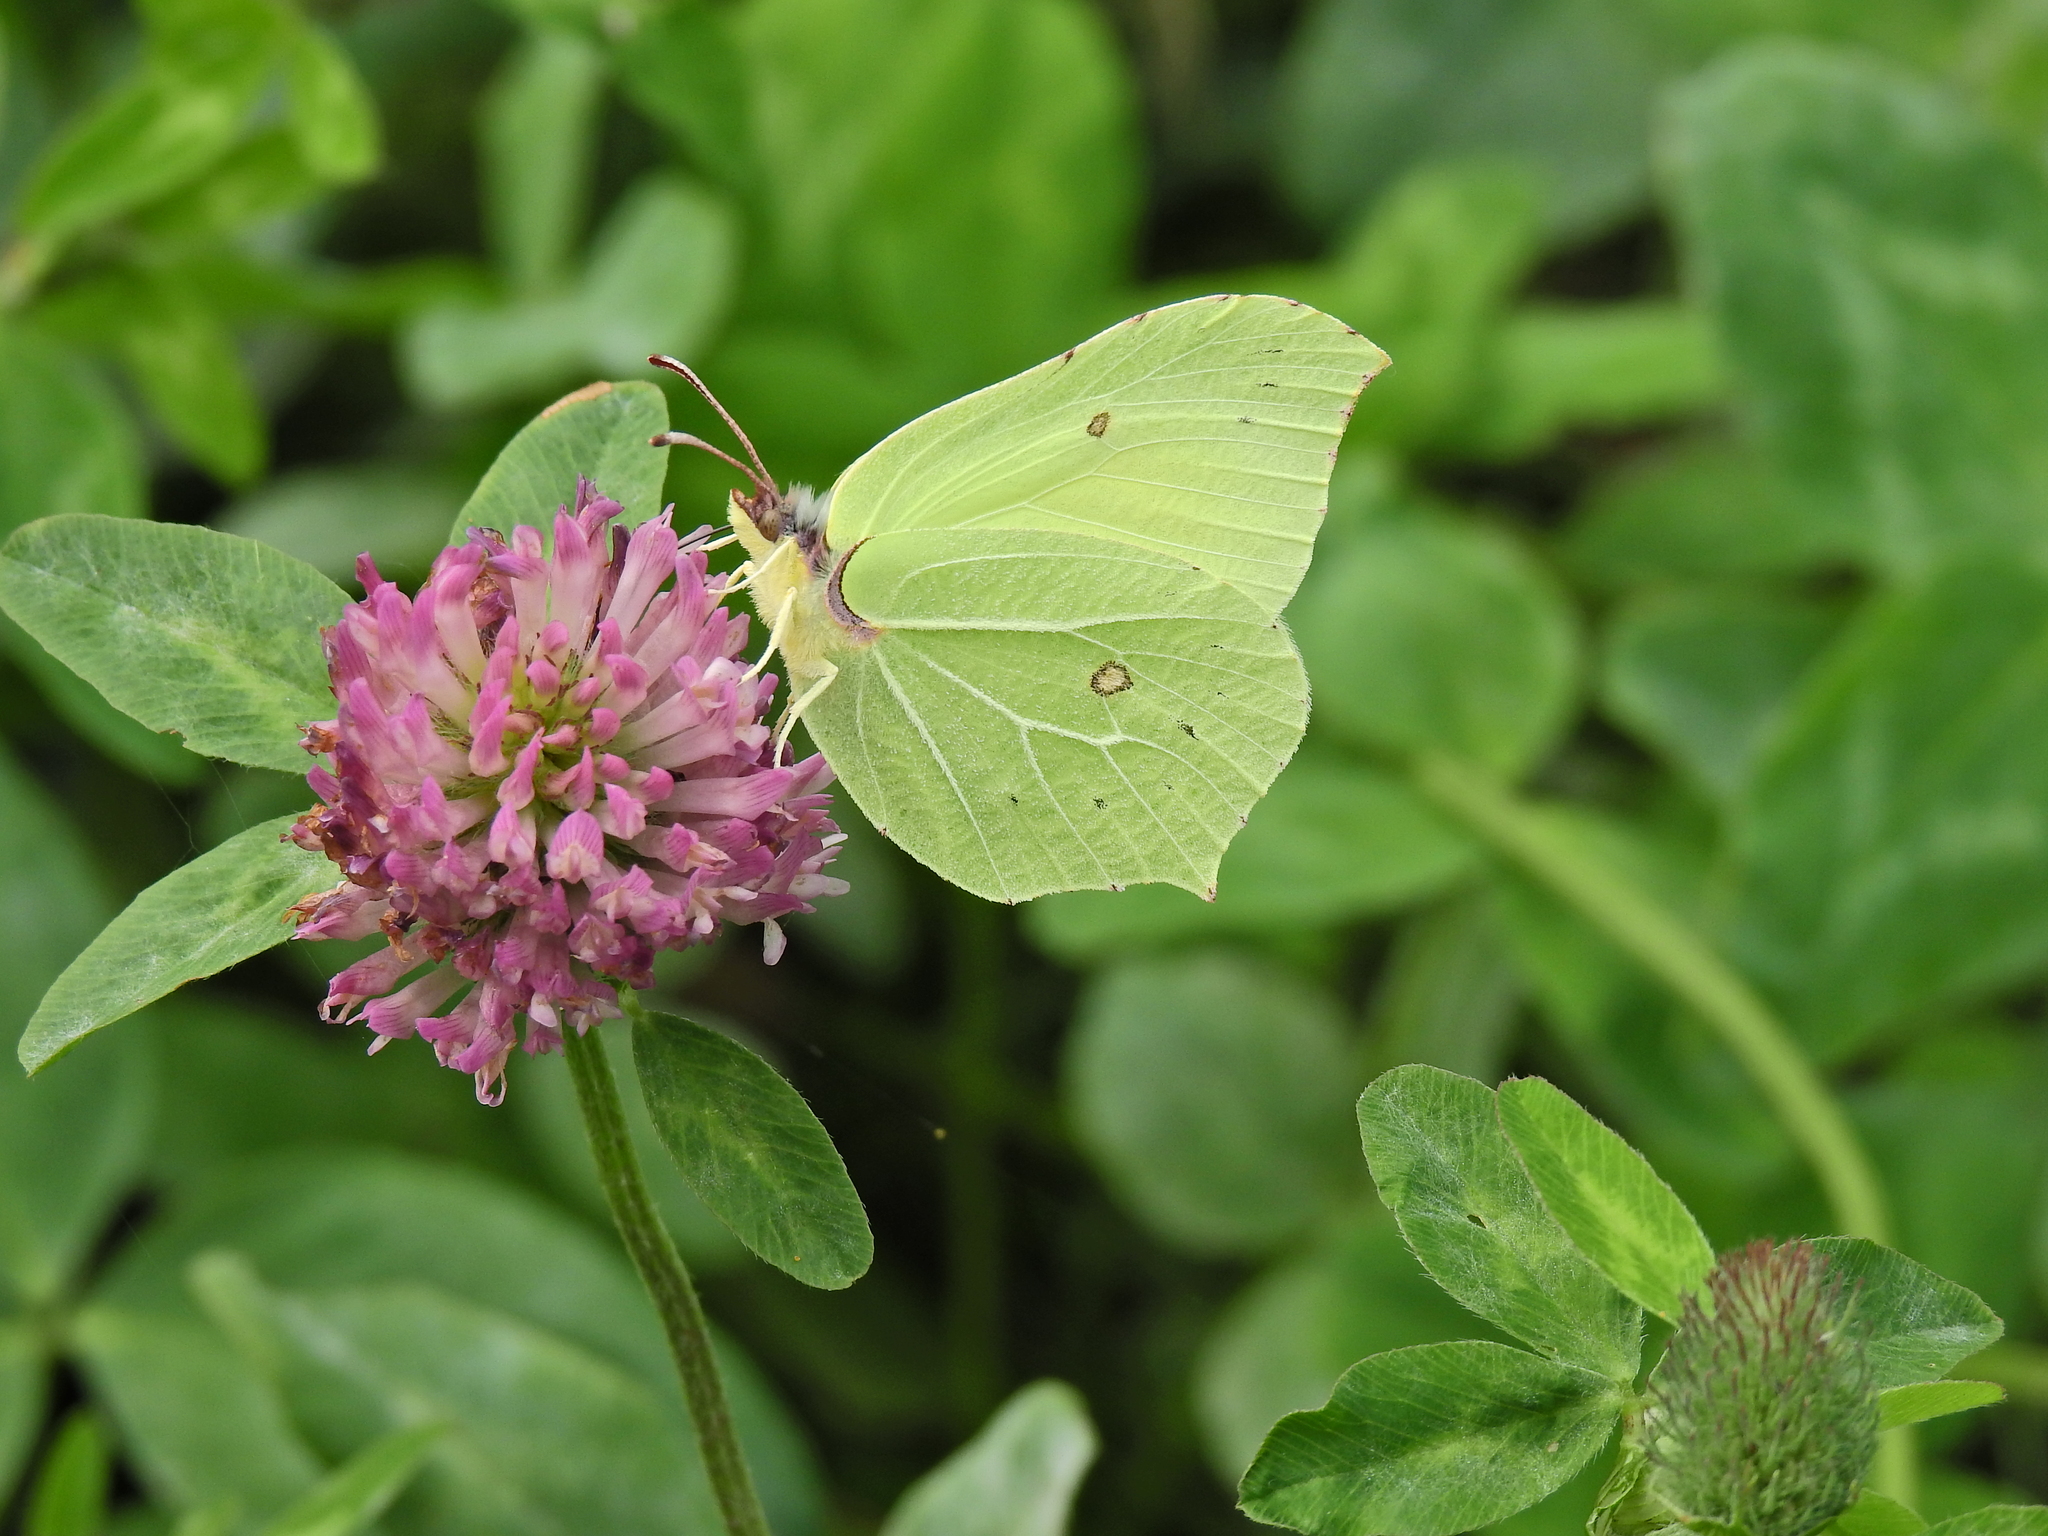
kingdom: Animalia
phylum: Arthropoda
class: Insecta
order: Lepidoptera
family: Pieridae
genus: Gonepteryx
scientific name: Gonepteryx rhamni
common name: Brimstone
